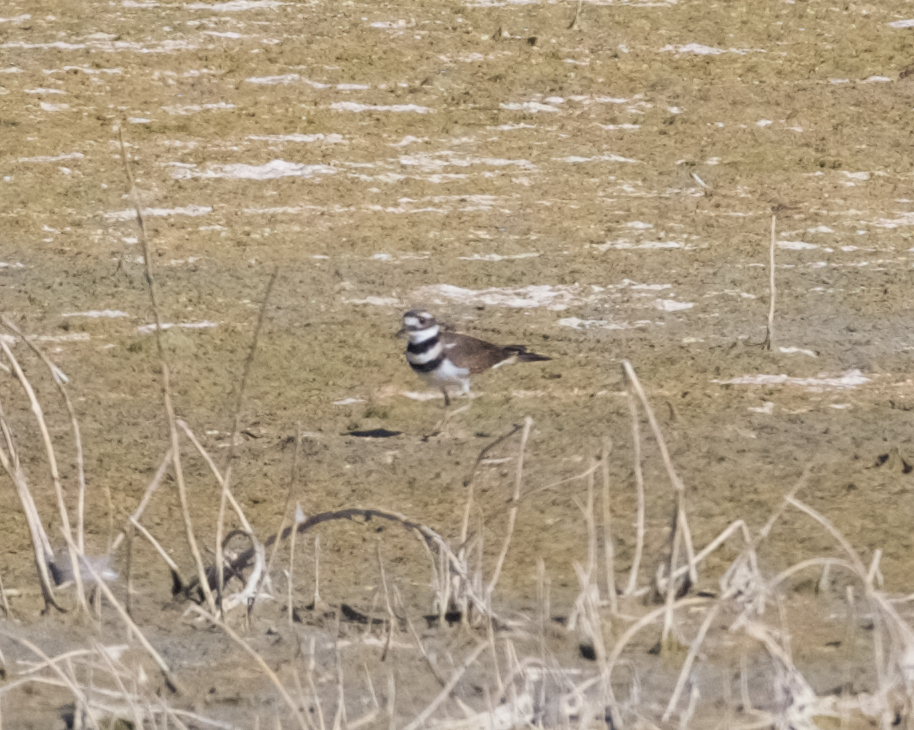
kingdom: Animalia
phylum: Chordata
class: Aves
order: Charadriiformes
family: Charadriidae
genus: Charadrius
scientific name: Charadrius vociferus
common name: Killdeer
